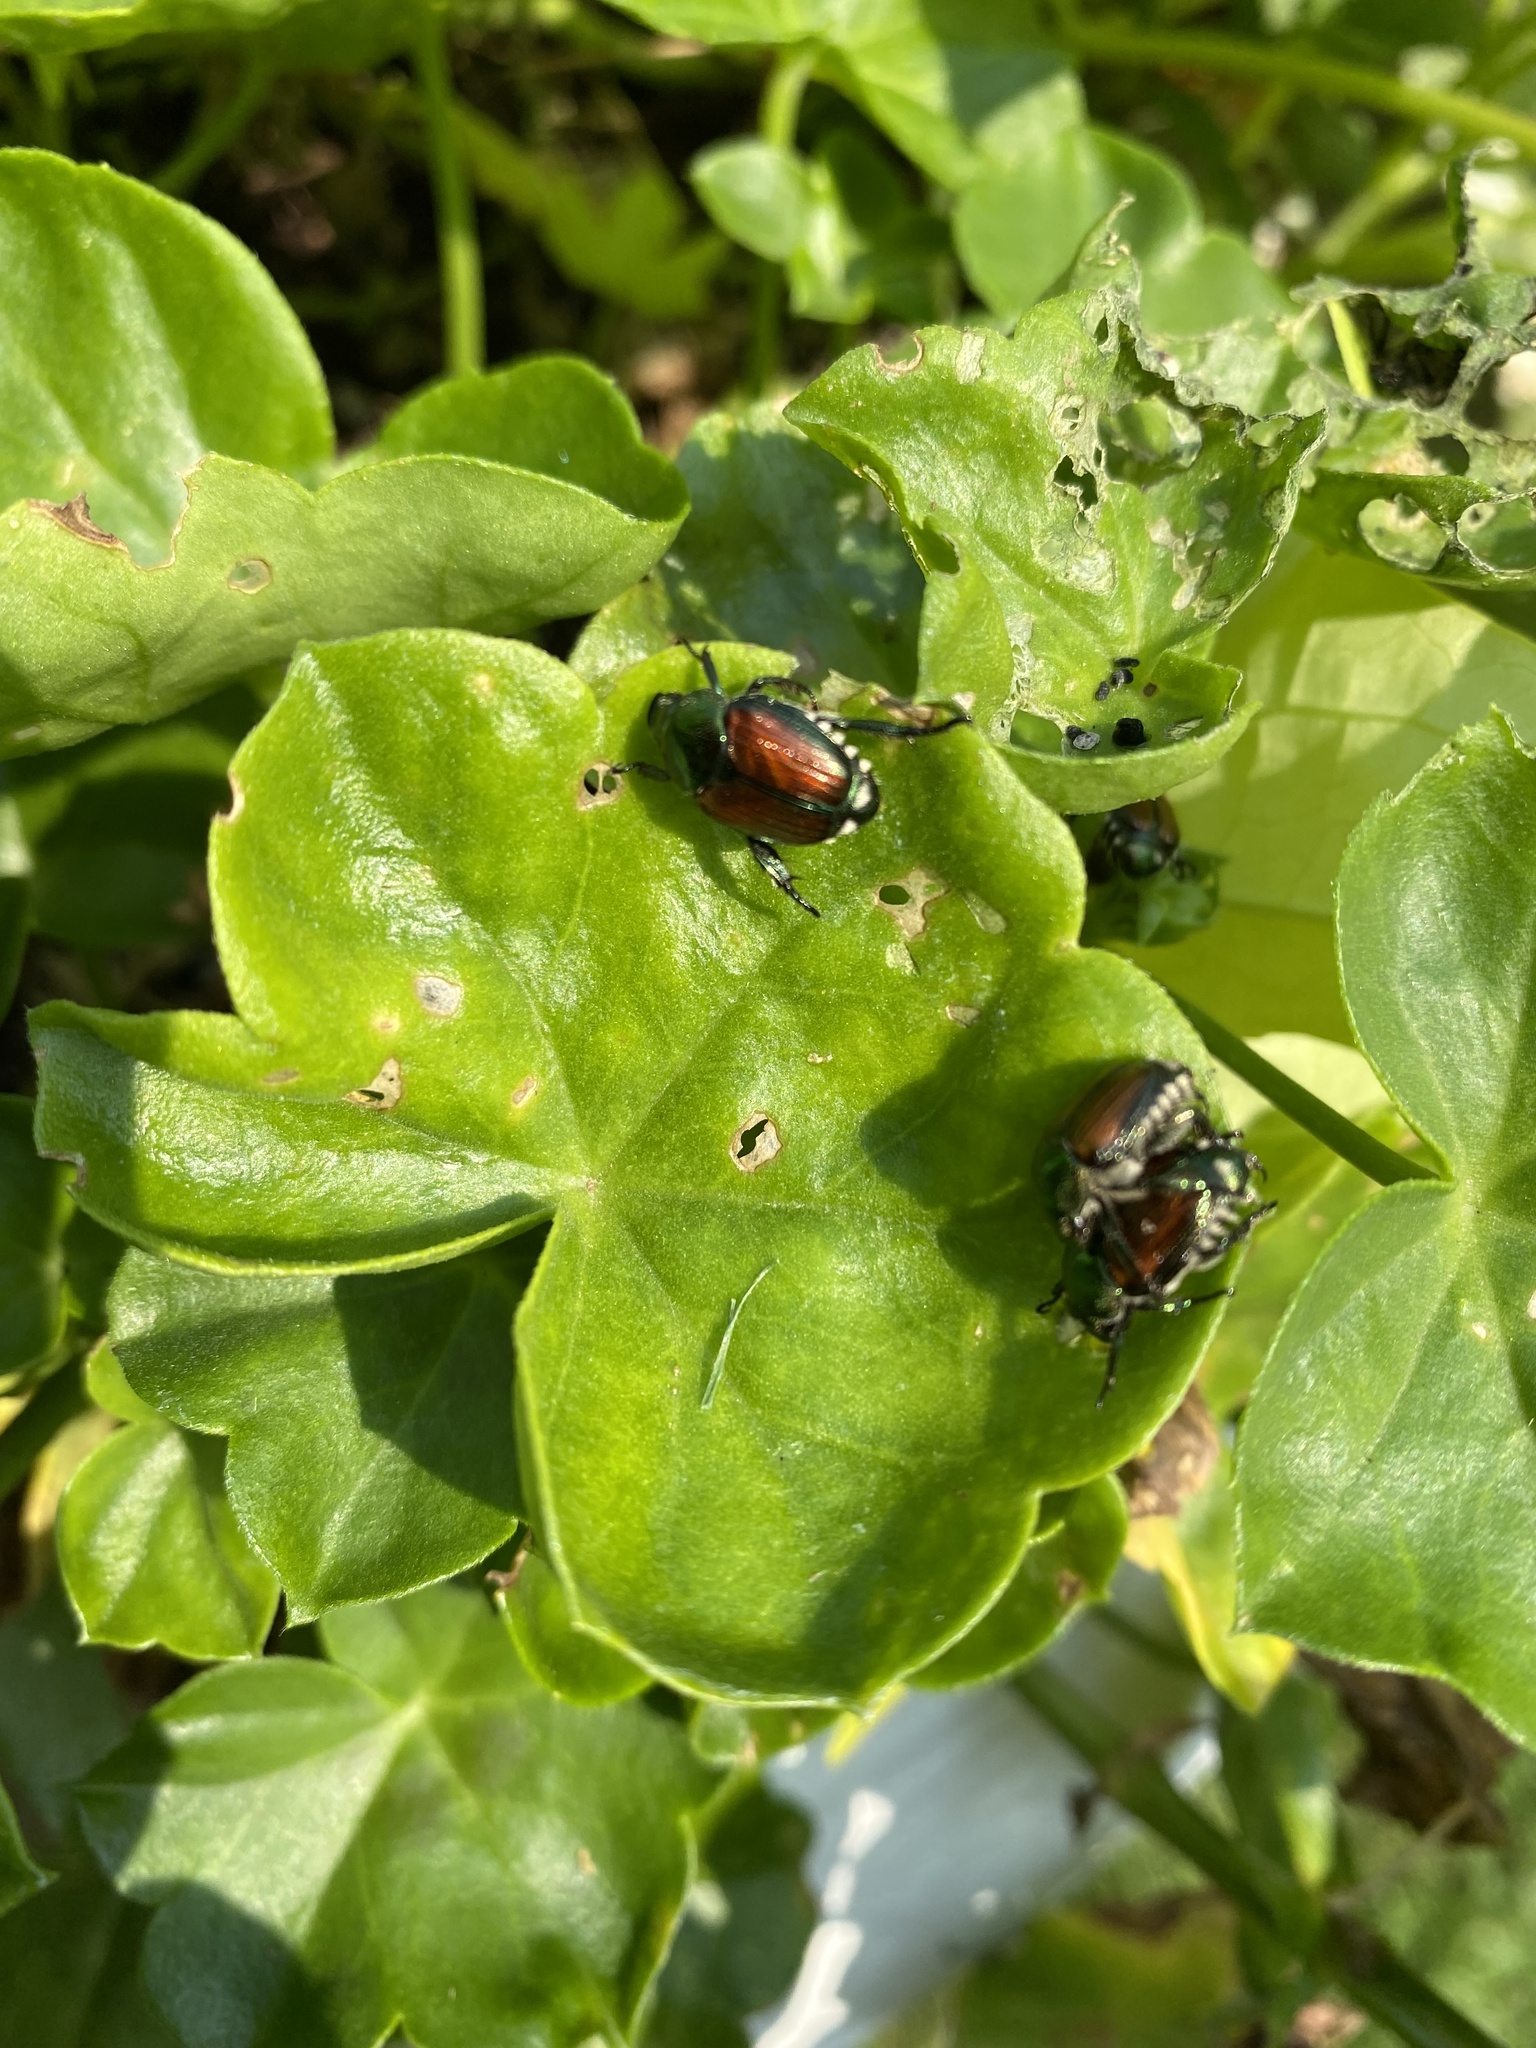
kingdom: Animalia
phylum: Arthropoda
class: Insecta
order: Coleoptera
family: Scarabaeidae
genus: Popillia
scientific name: Popillia japonica
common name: Japanese beetle
